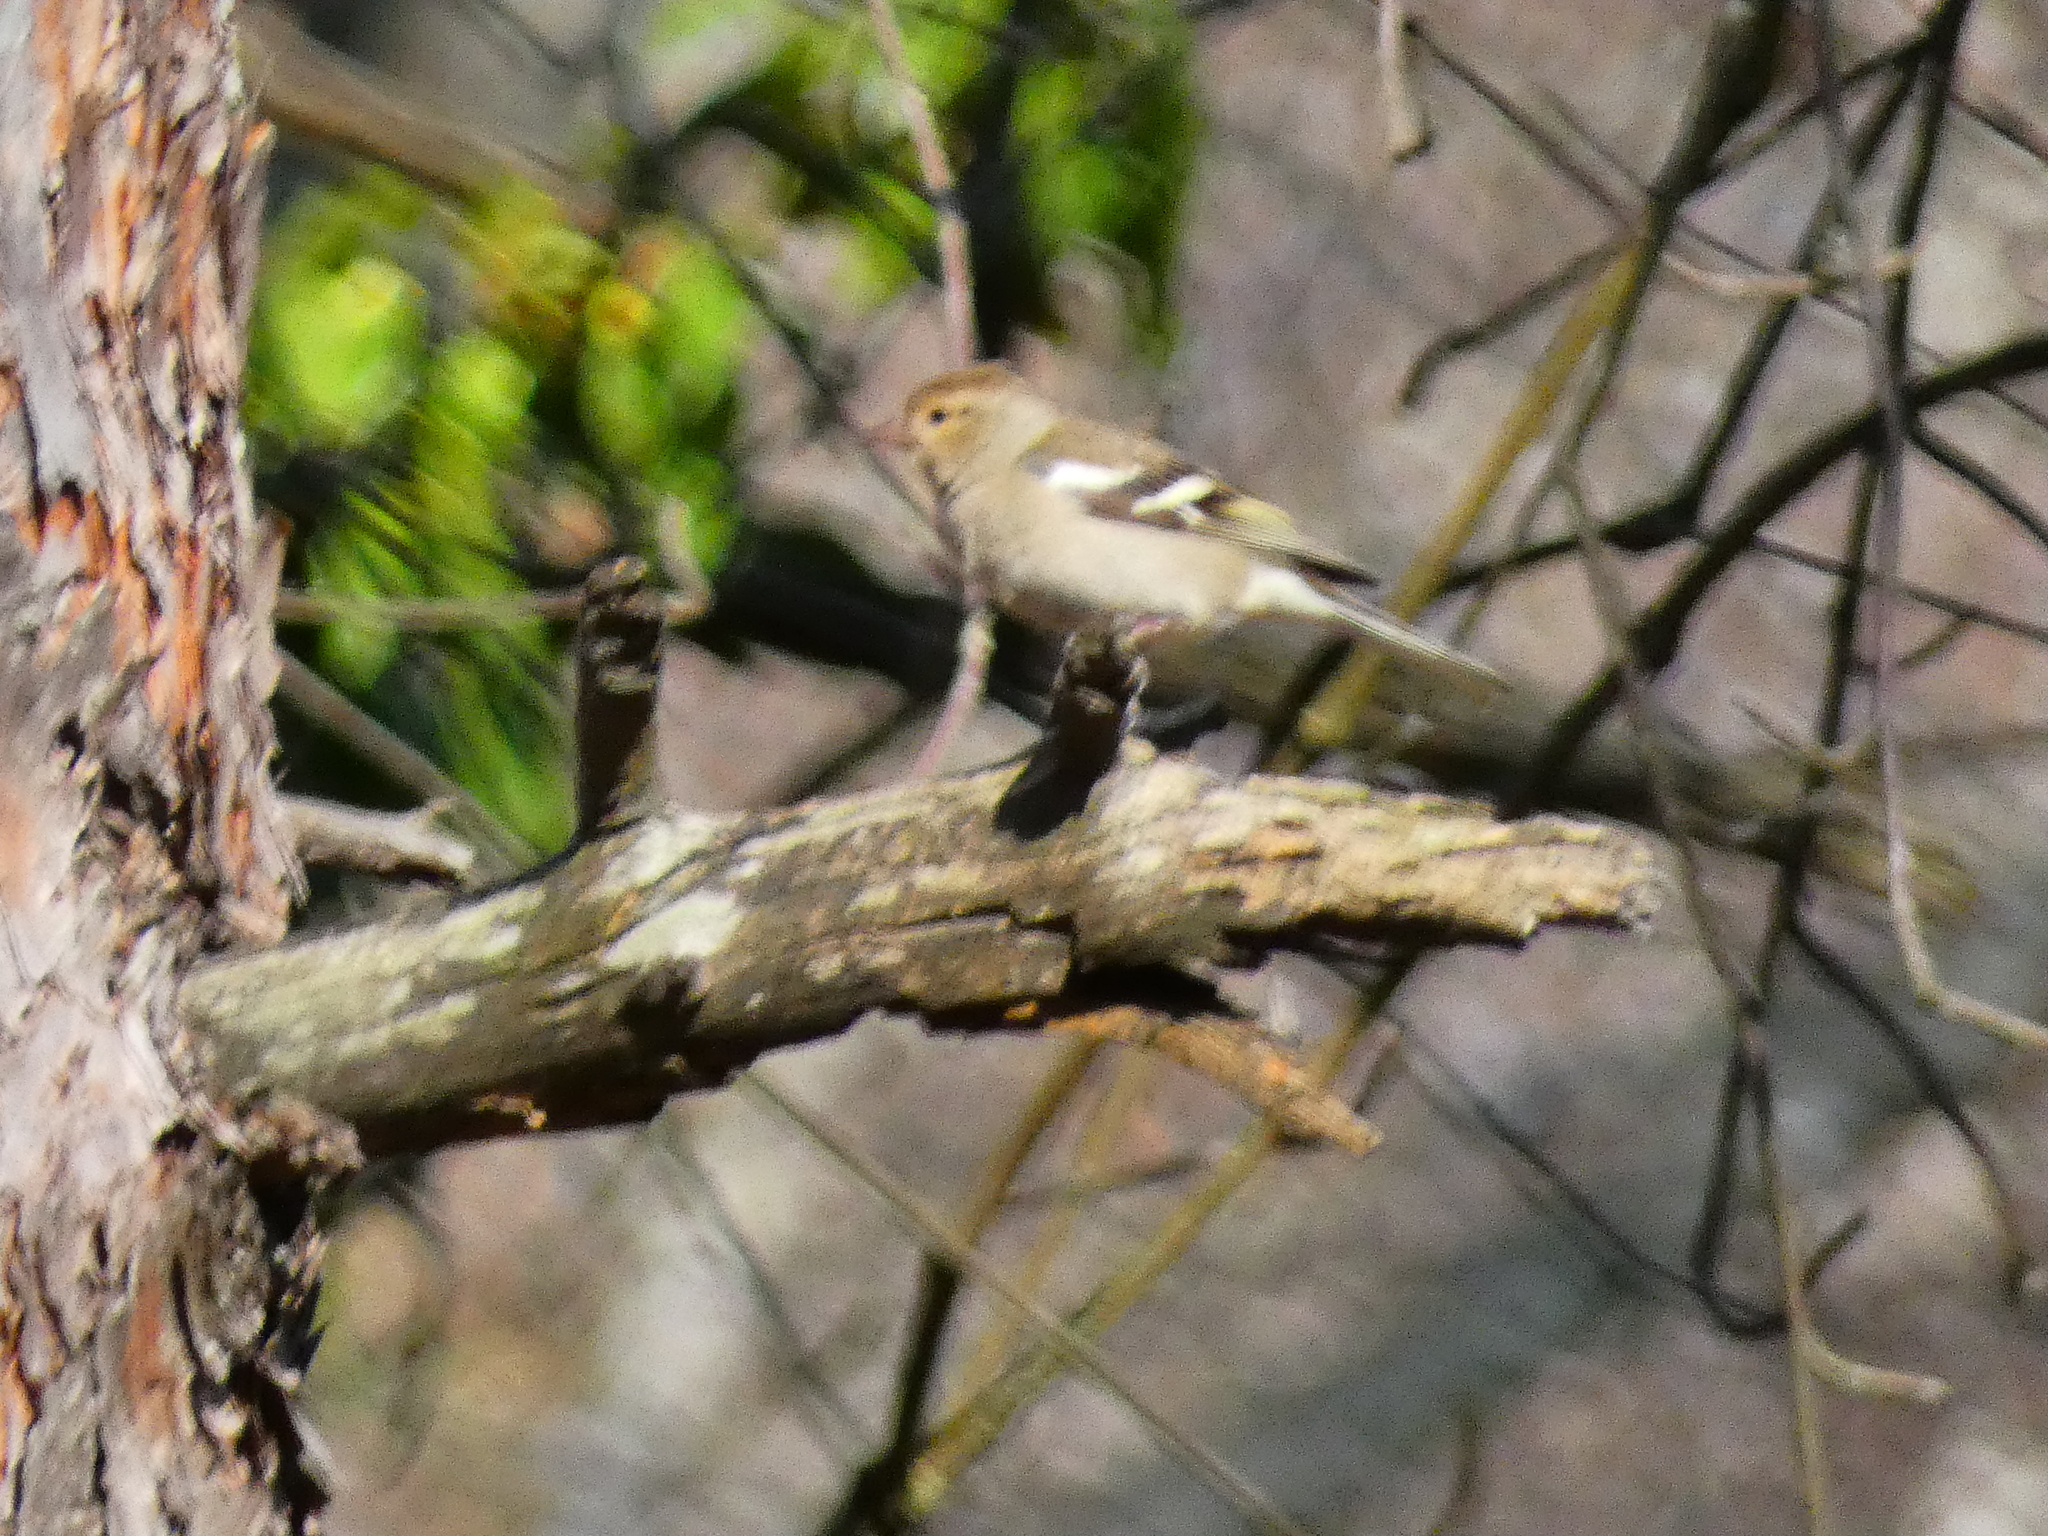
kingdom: Animalia
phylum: Chordata
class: Aves
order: Passeriformes
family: Fringillidae
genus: Fringilla
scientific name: Fringilla coelebs
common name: Common chaffinch
